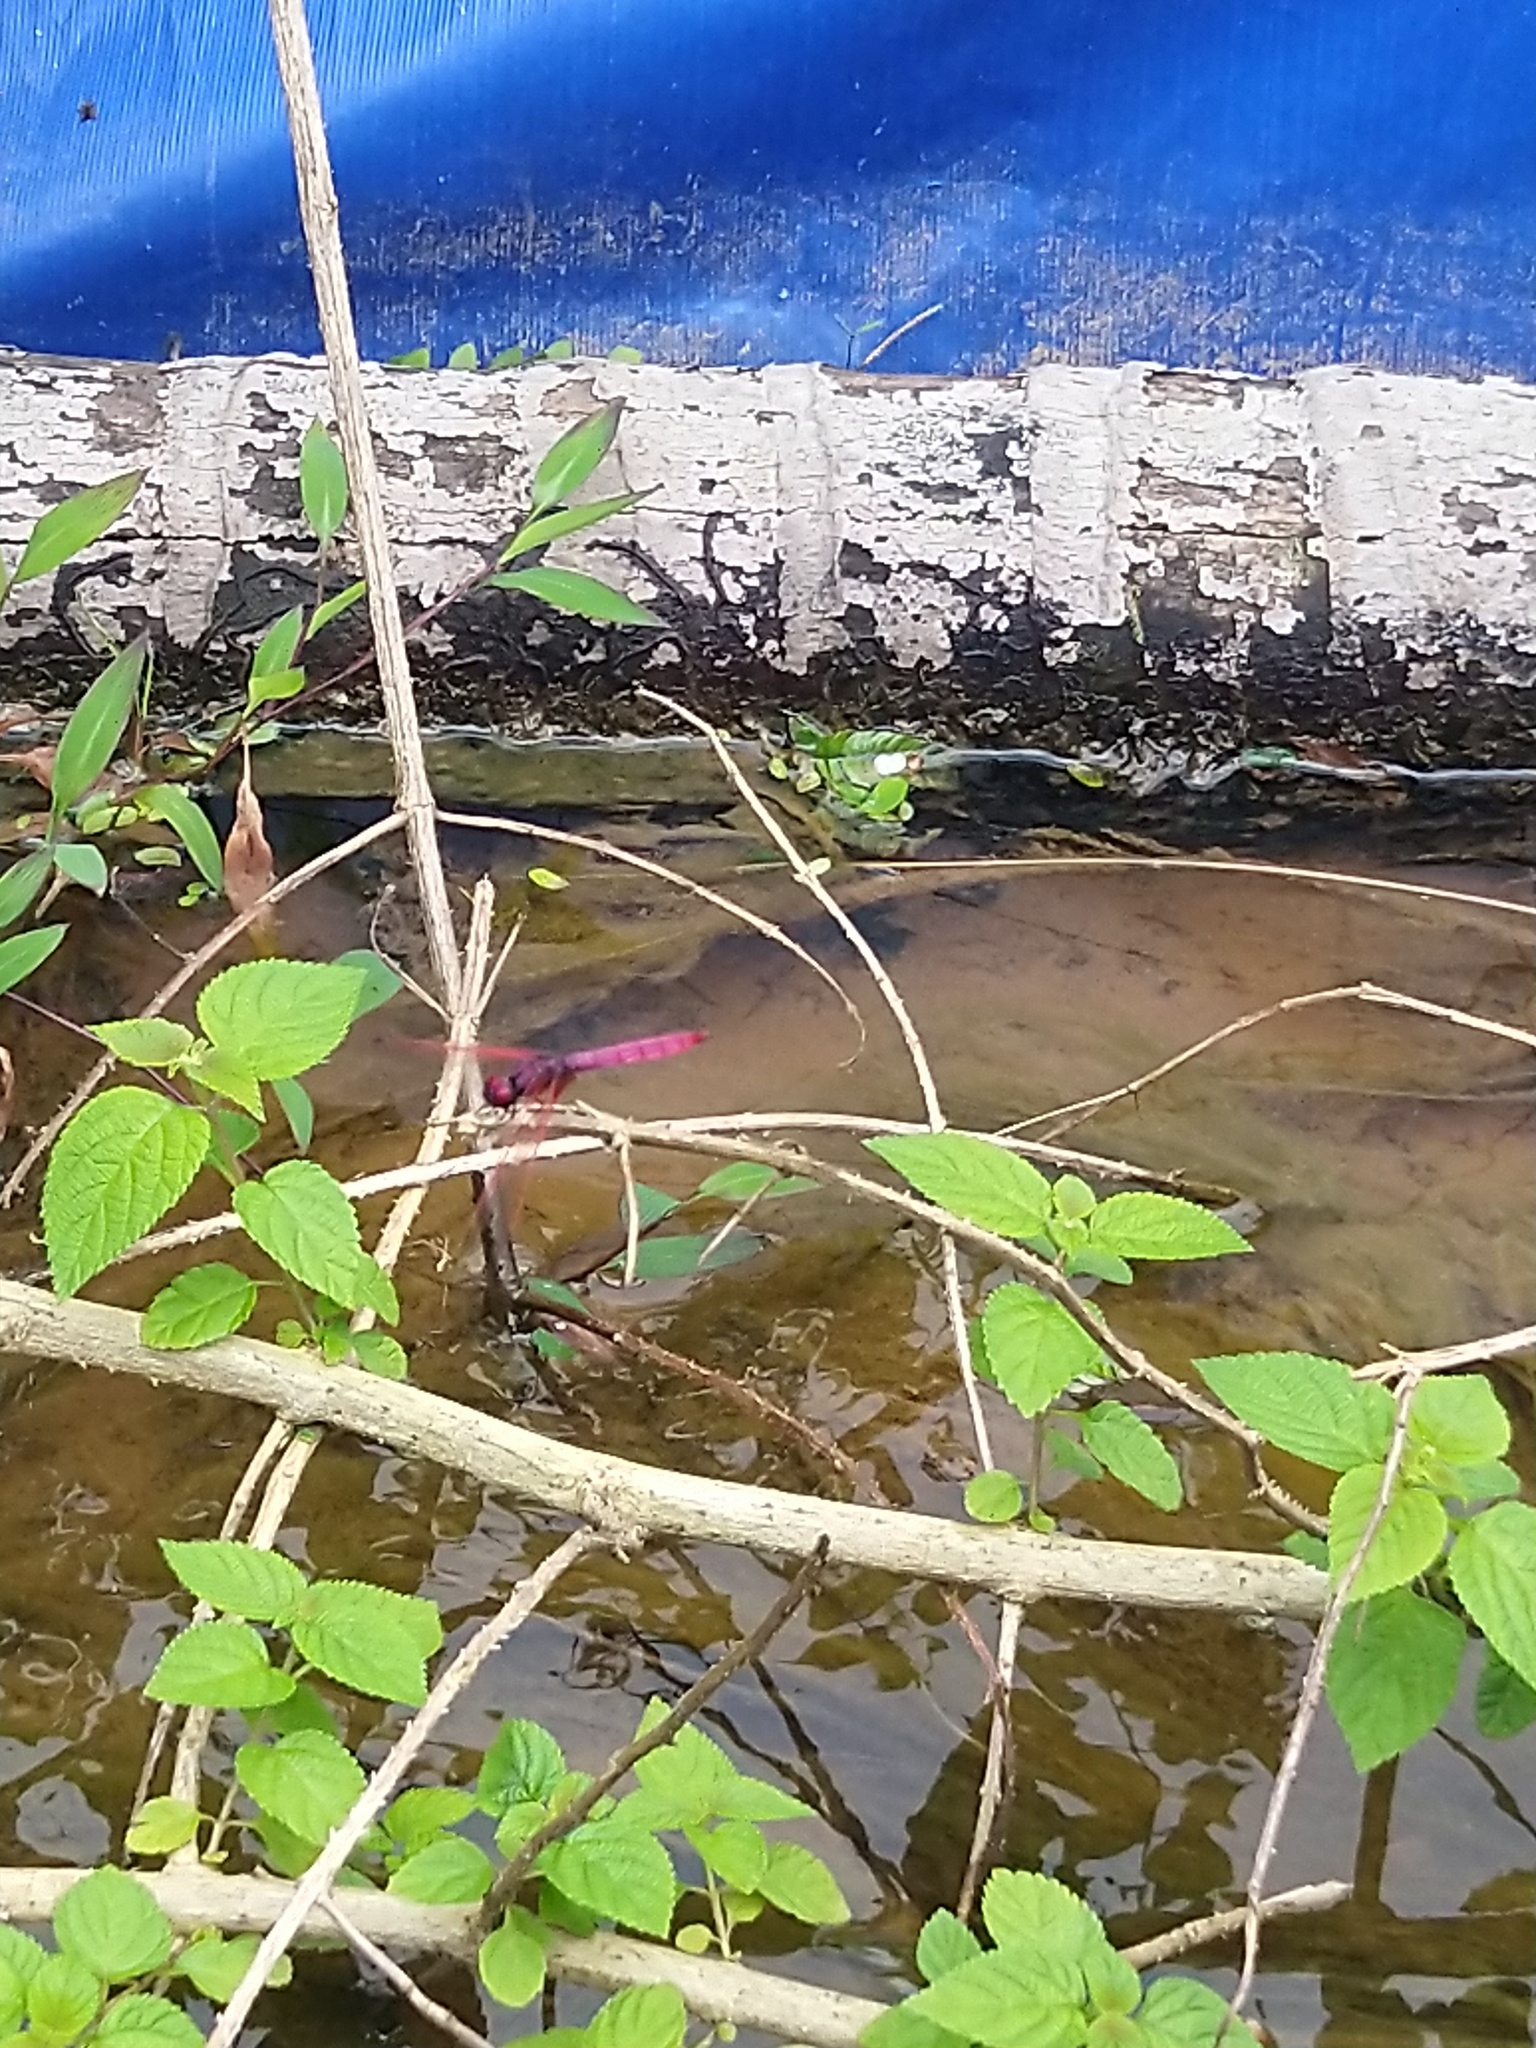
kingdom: Animalia
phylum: Arthropoda
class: Insecta
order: Odonata
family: Libellulidae
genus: Trithemis
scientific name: Trithemis aurora
